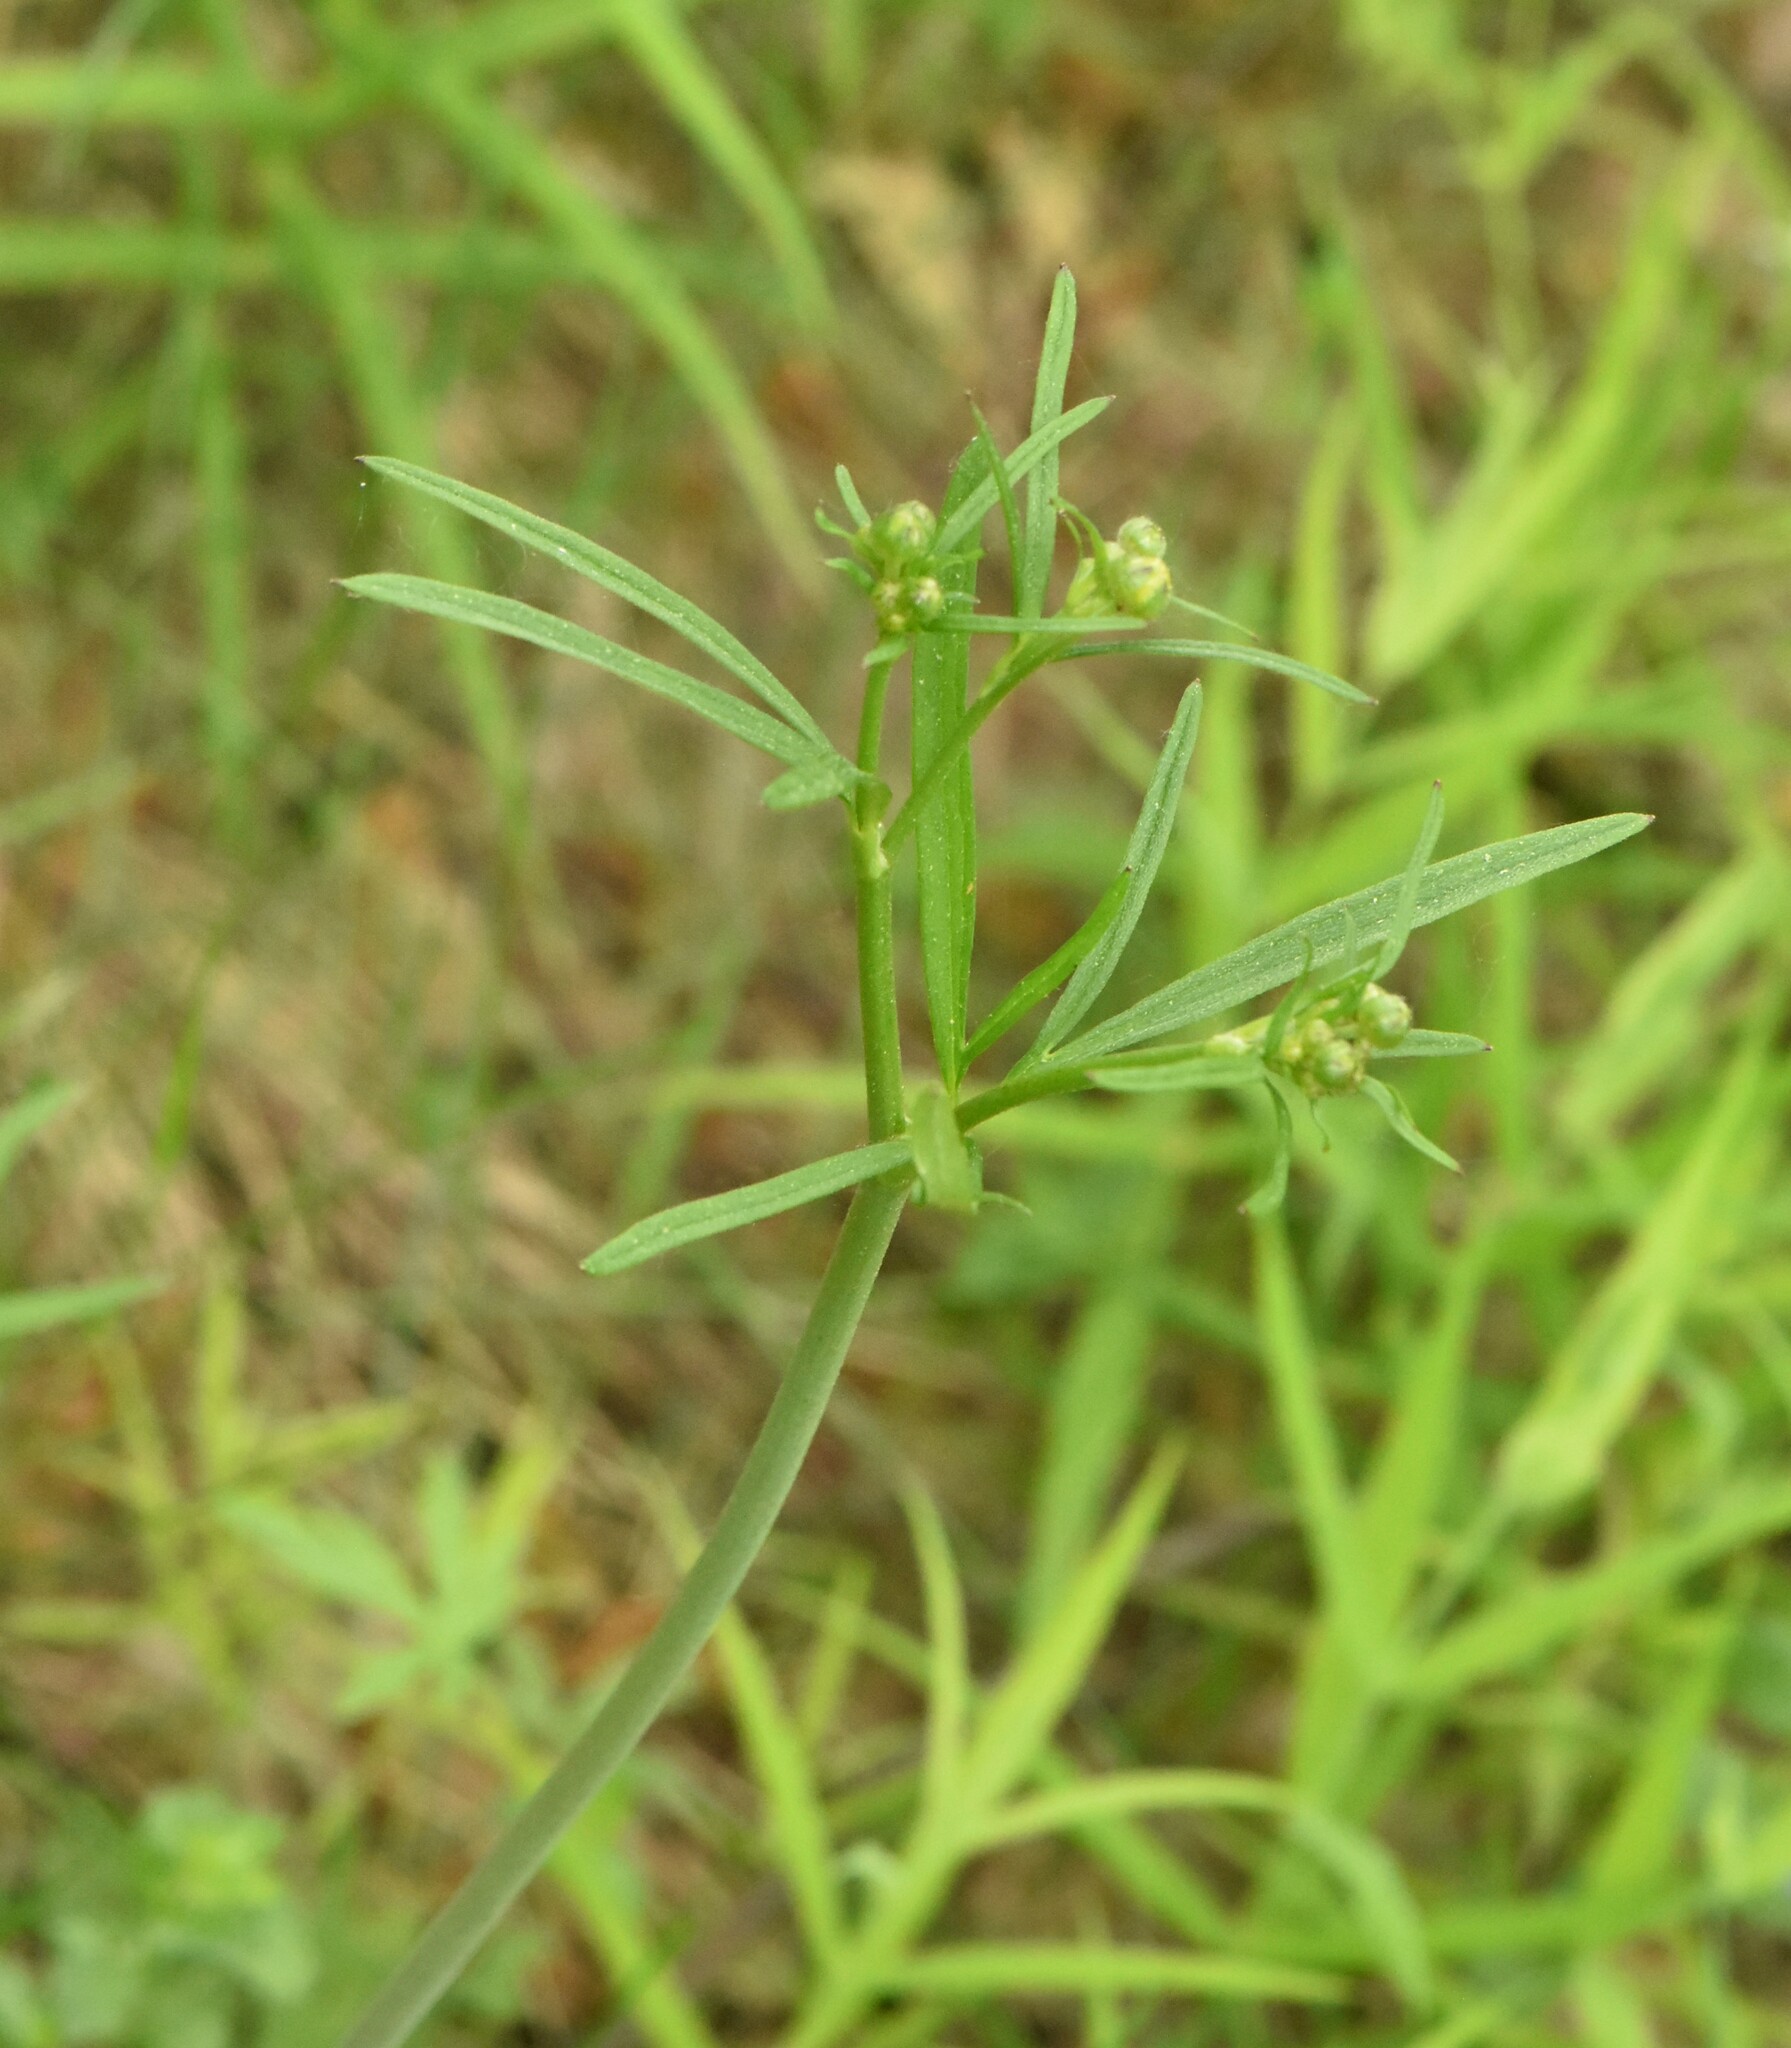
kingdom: Plantae
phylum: Tracheophyta
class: Magnoliopsida
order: Ranunculales
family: Ranunculaceae
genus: Ranunculus
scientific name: Ranunculus acris
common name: Meadow buttercup
